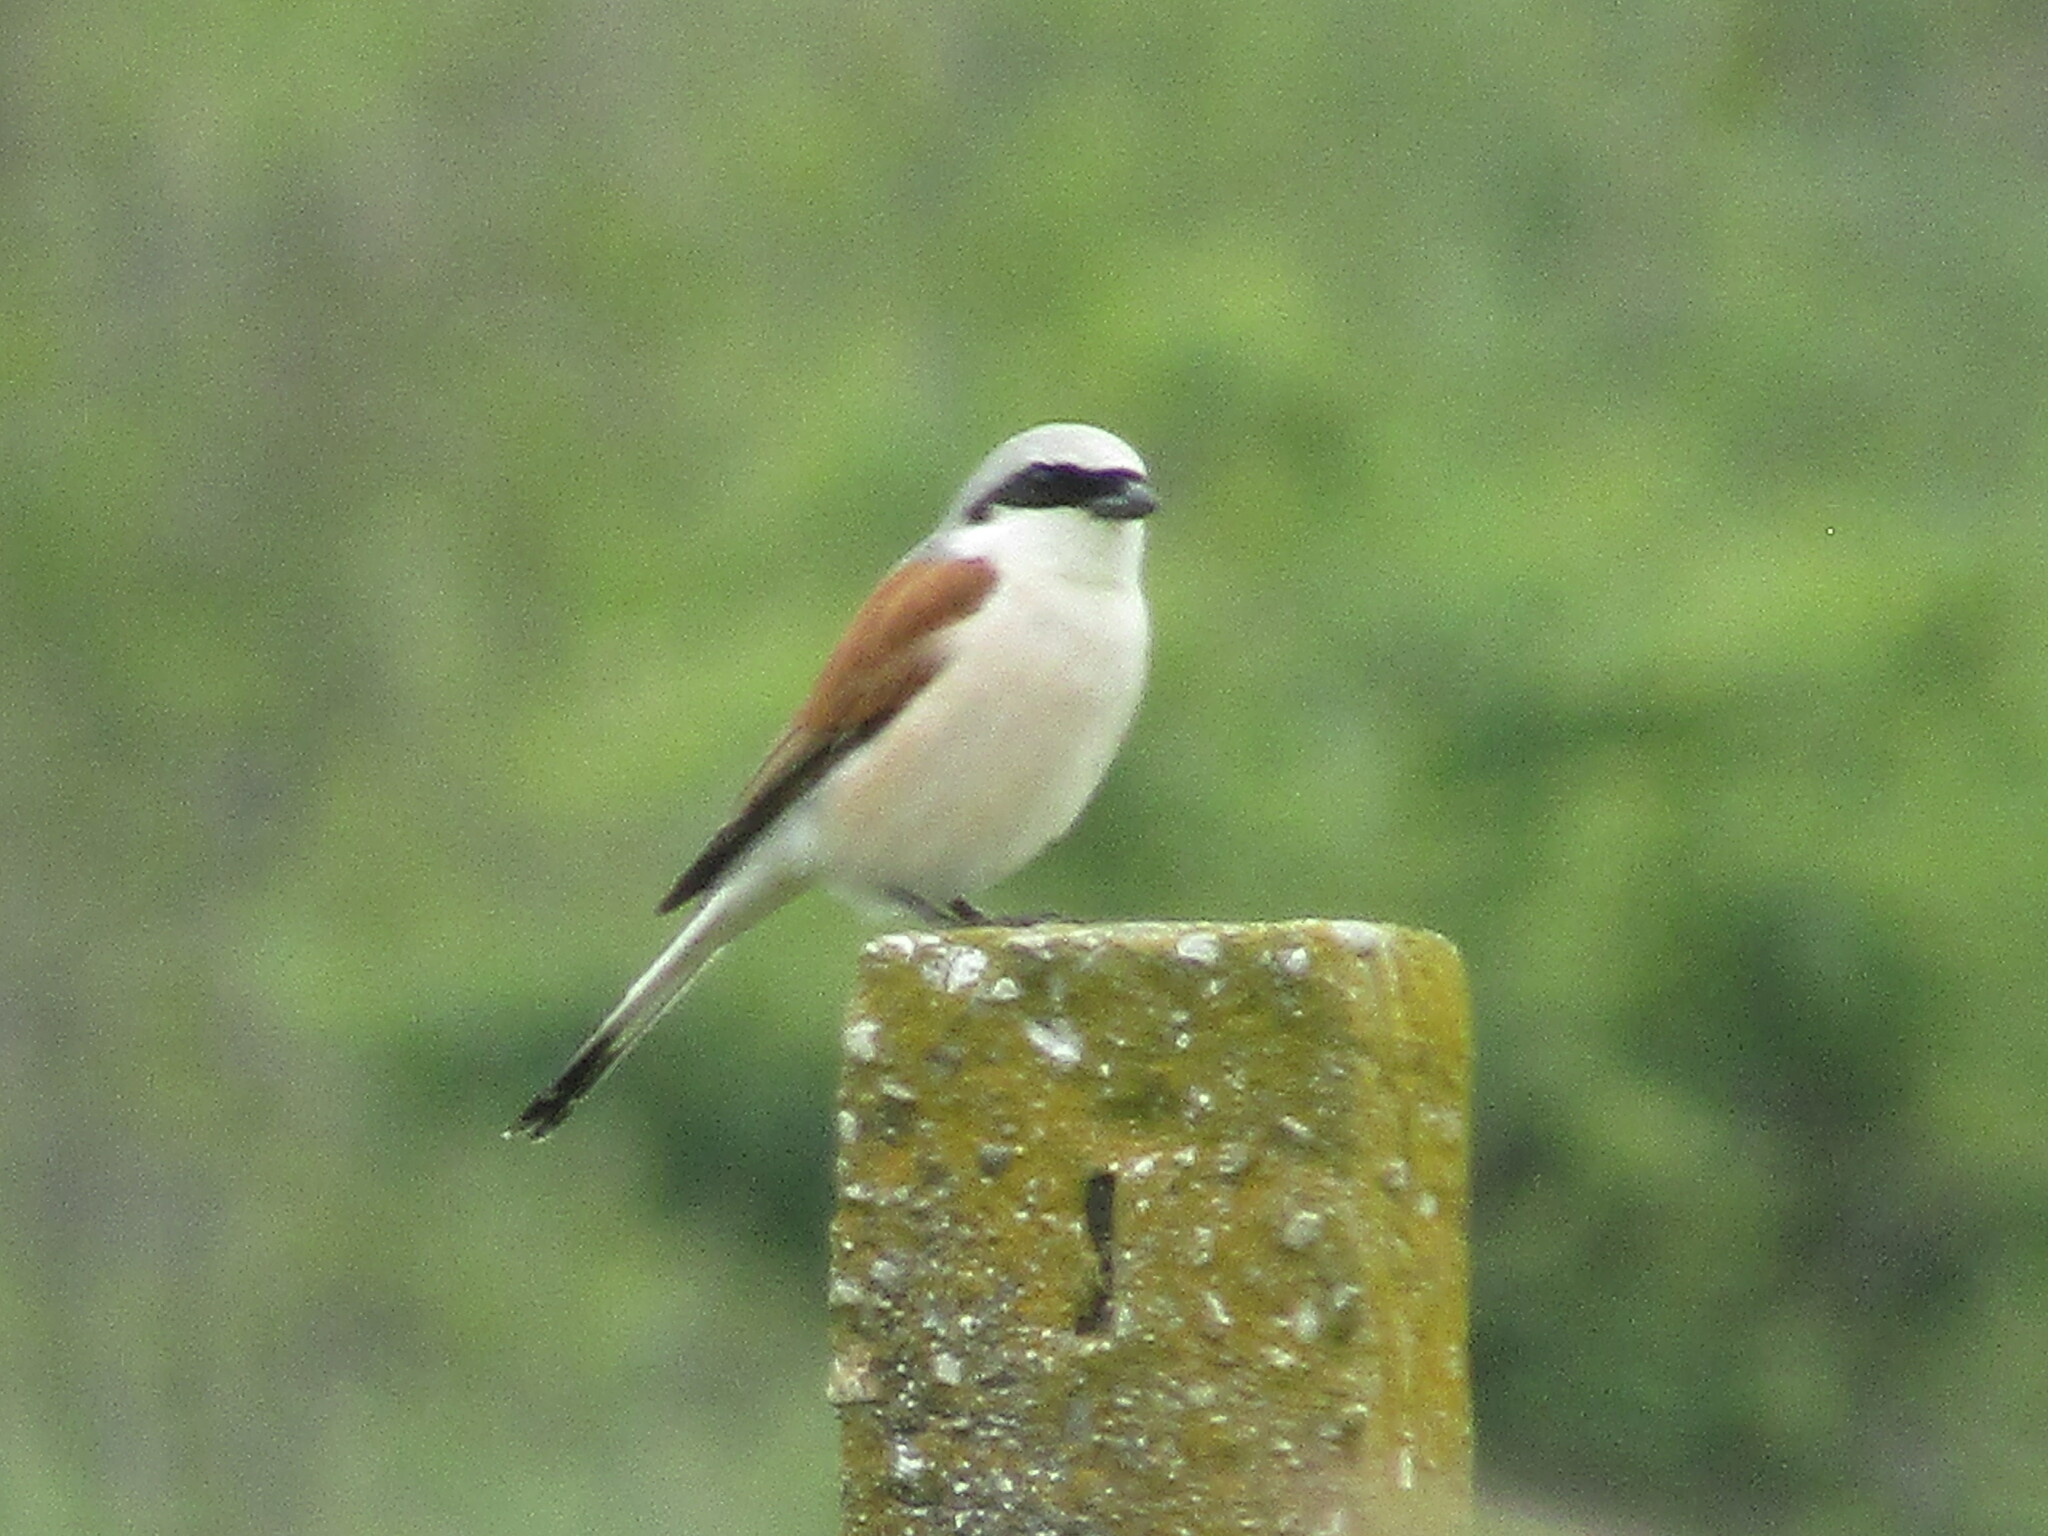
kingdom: Animalia
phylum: Chordata
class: Aves
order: Passeriformes
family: Laniidae
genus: Lanius
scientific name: Lanius collurio
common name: Red-backed shrike
